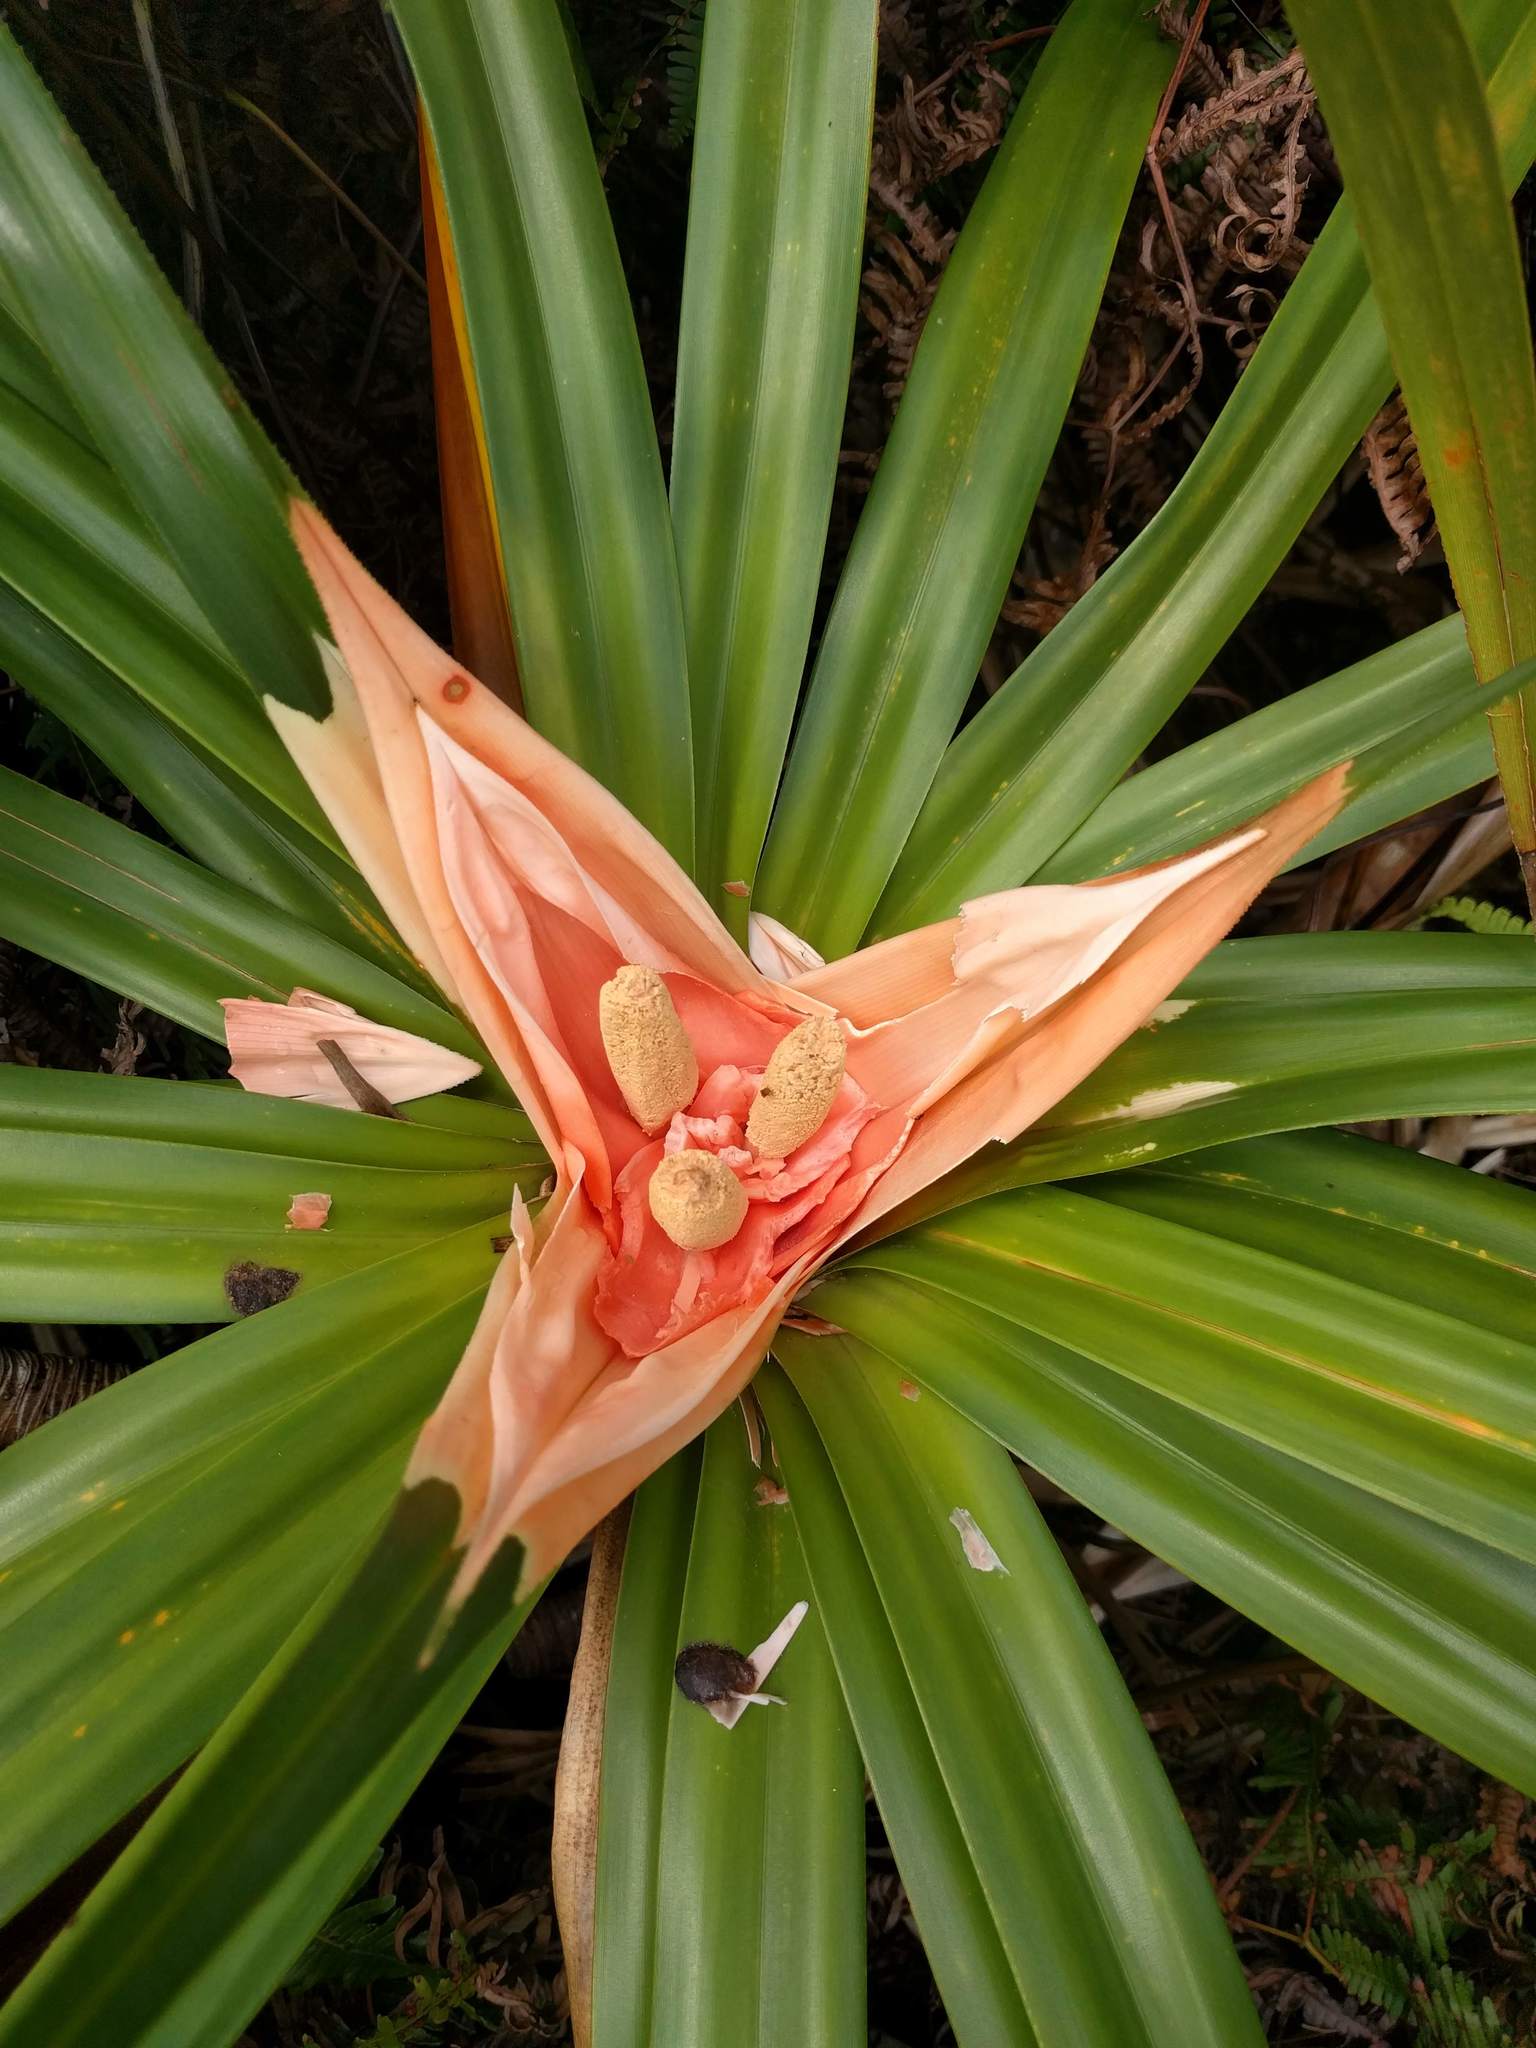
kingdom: Plantae
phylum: Tracheophyta
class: Liliopsida
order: Pandanales
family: Pandanaceae
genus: Freycinetia
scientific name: Freycinetia arborea
